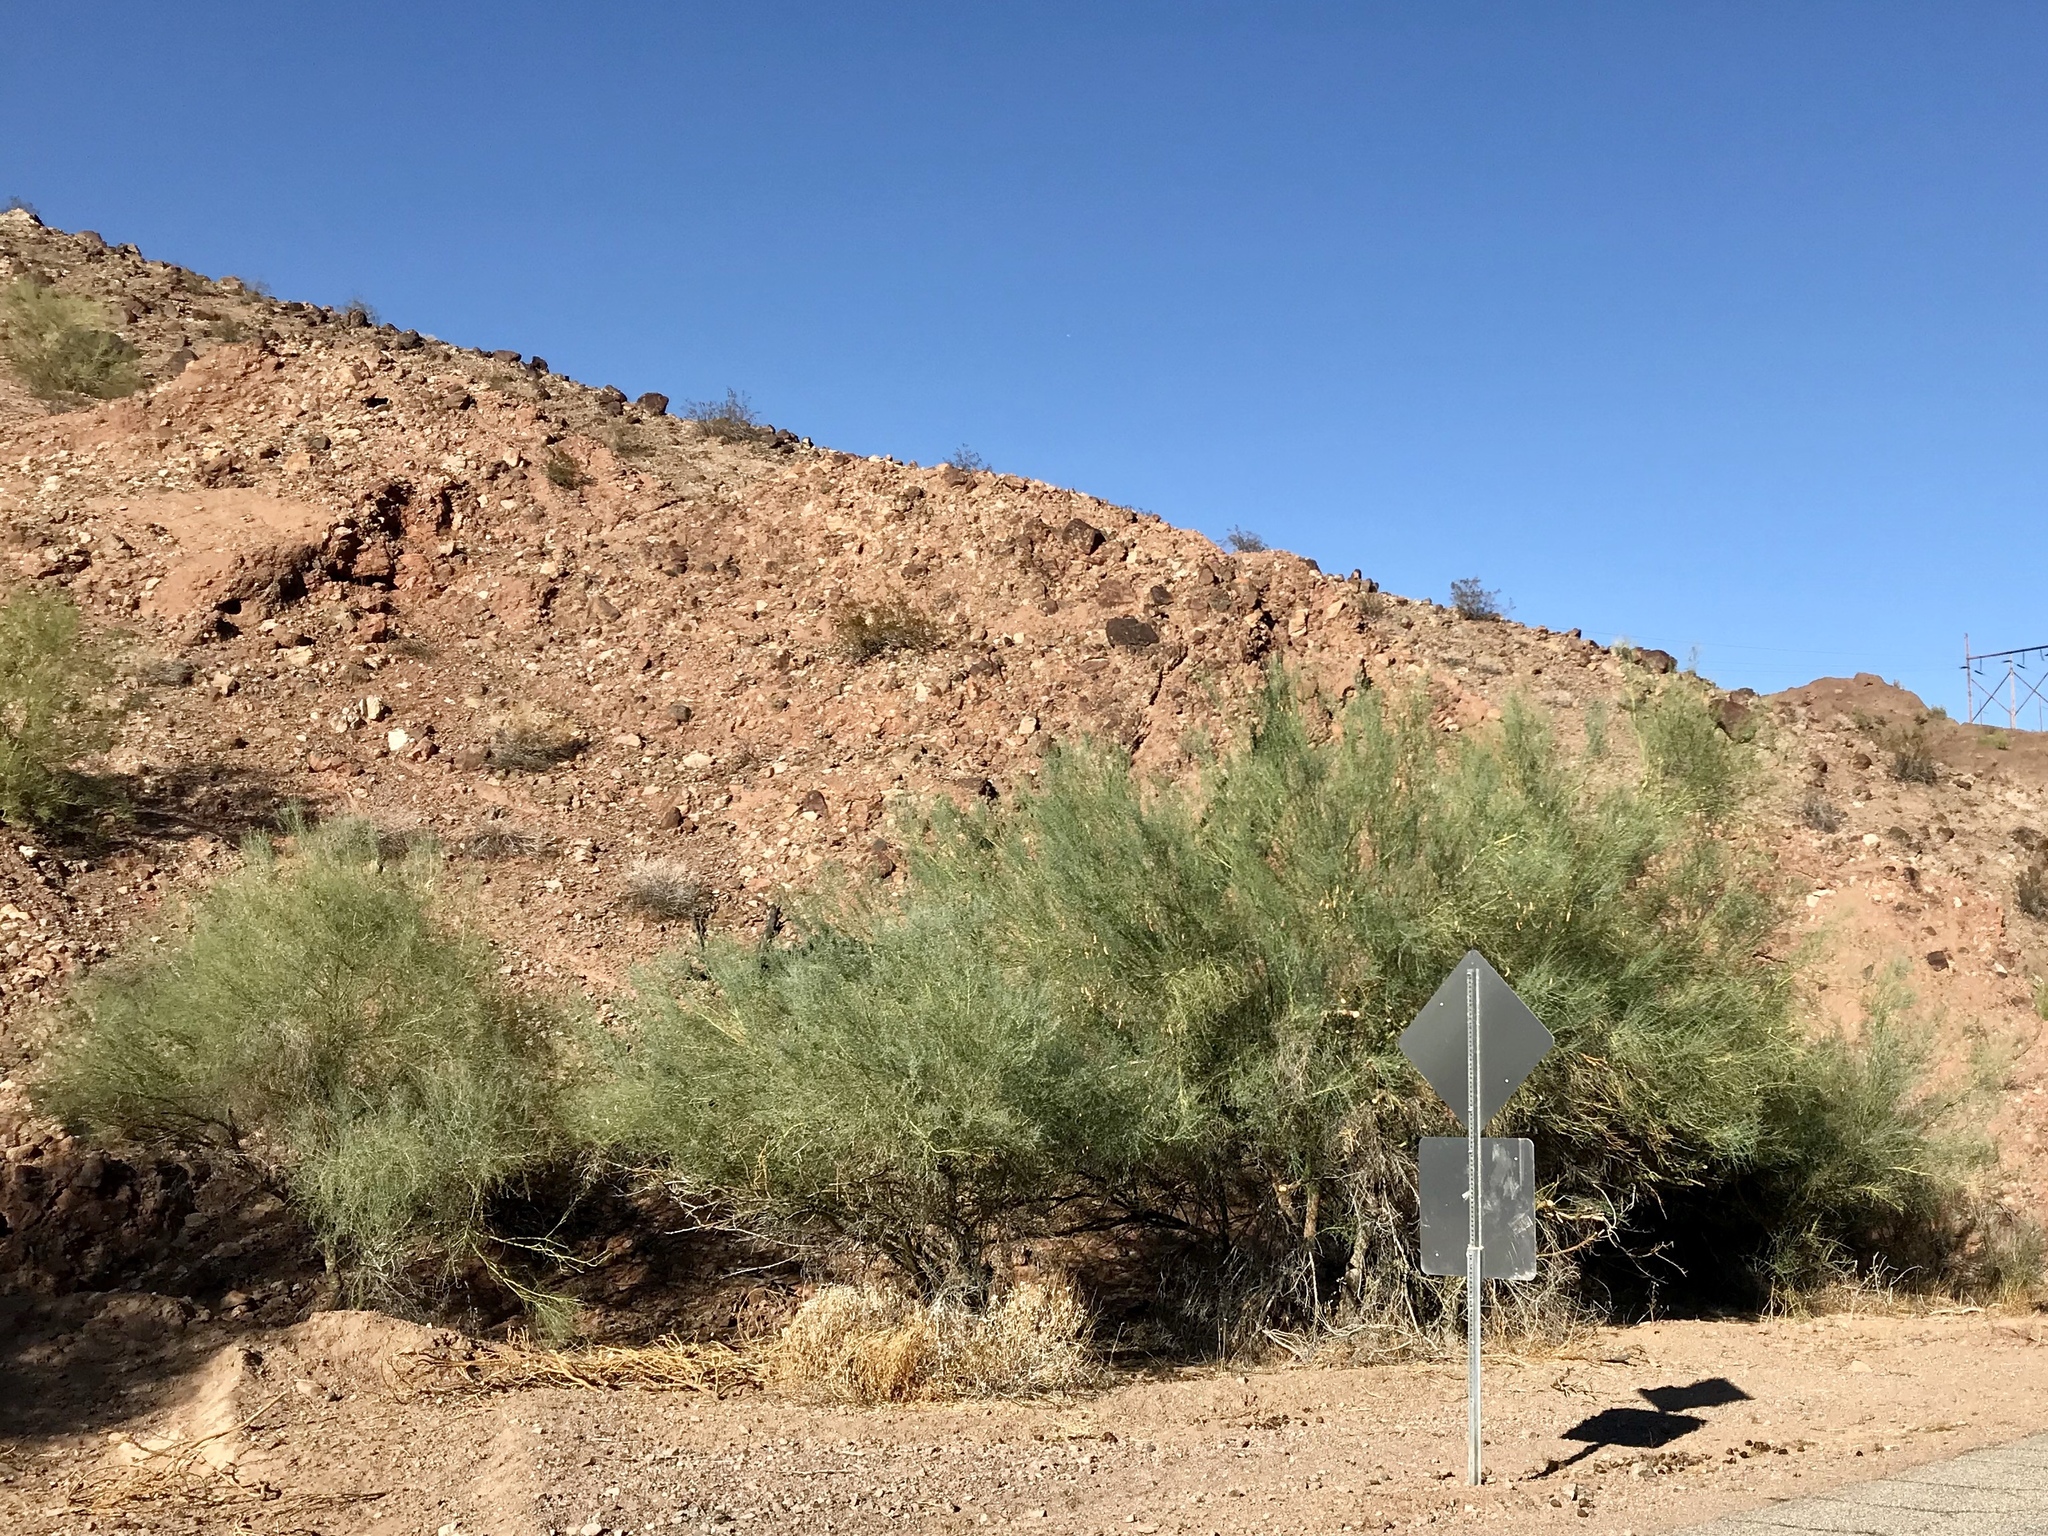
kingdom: Plantae
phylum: Tracheophyta
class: Magnoliopsida
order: Fabales
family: Fabaceae
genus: Parkinsonia
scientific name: Parkinsonia florida
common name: Blue paloverde
